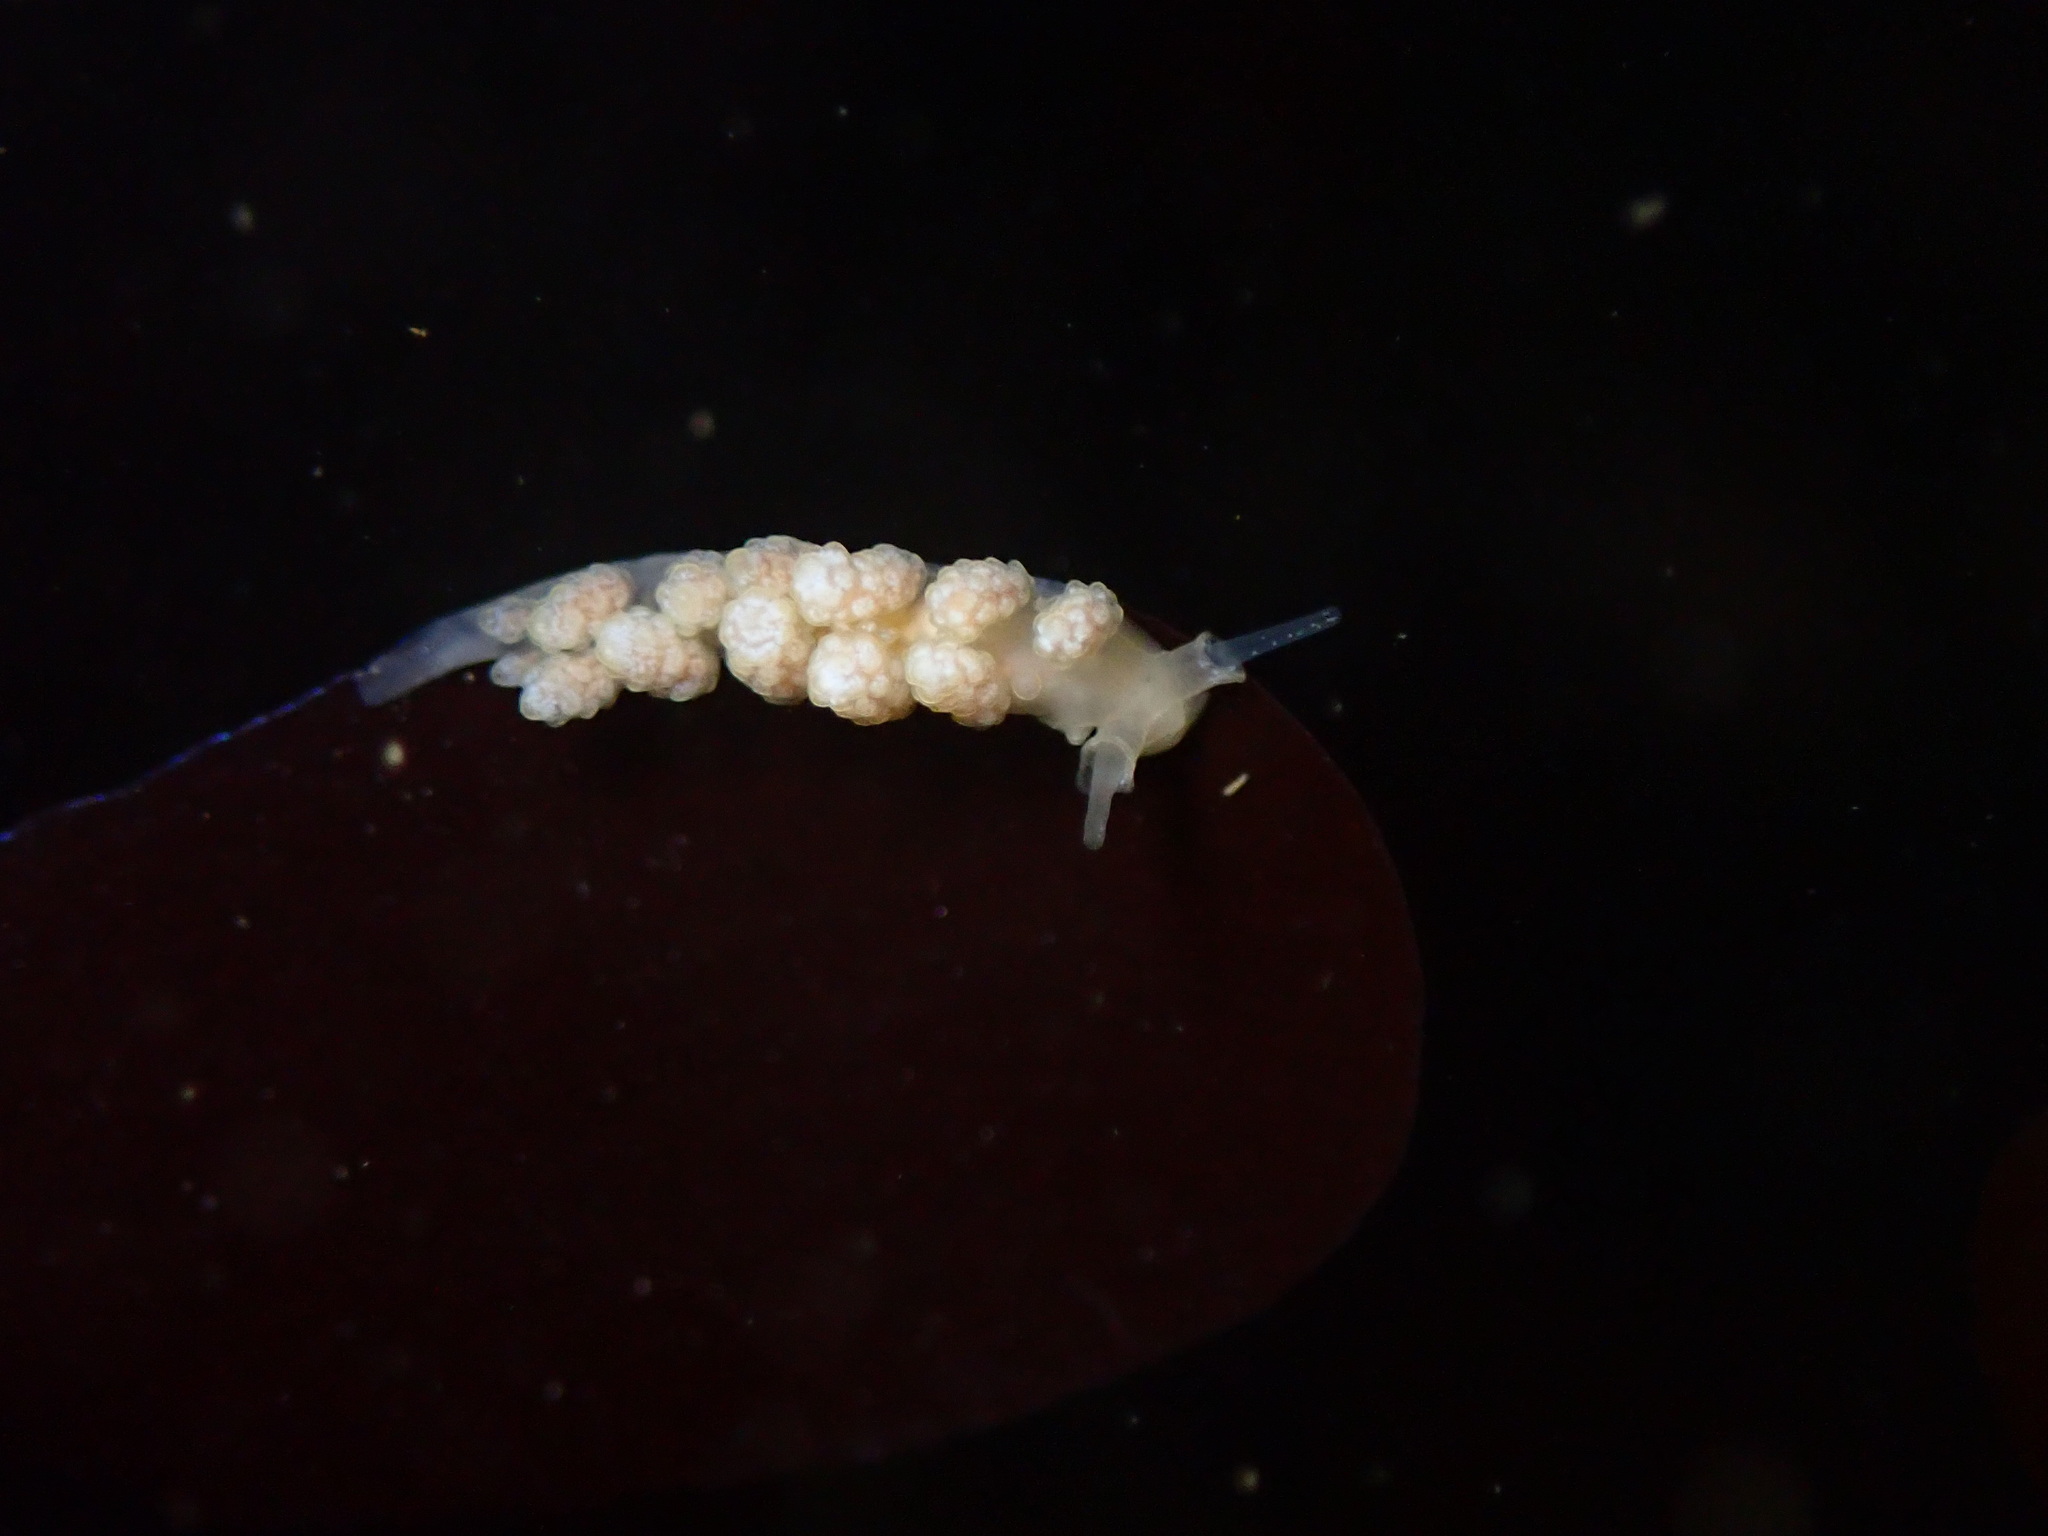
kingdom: Animalia
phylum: Mollusca
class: Gastropoda
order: Nudibranchia
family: Dotidae
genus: Doto
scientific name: Doto amyra
